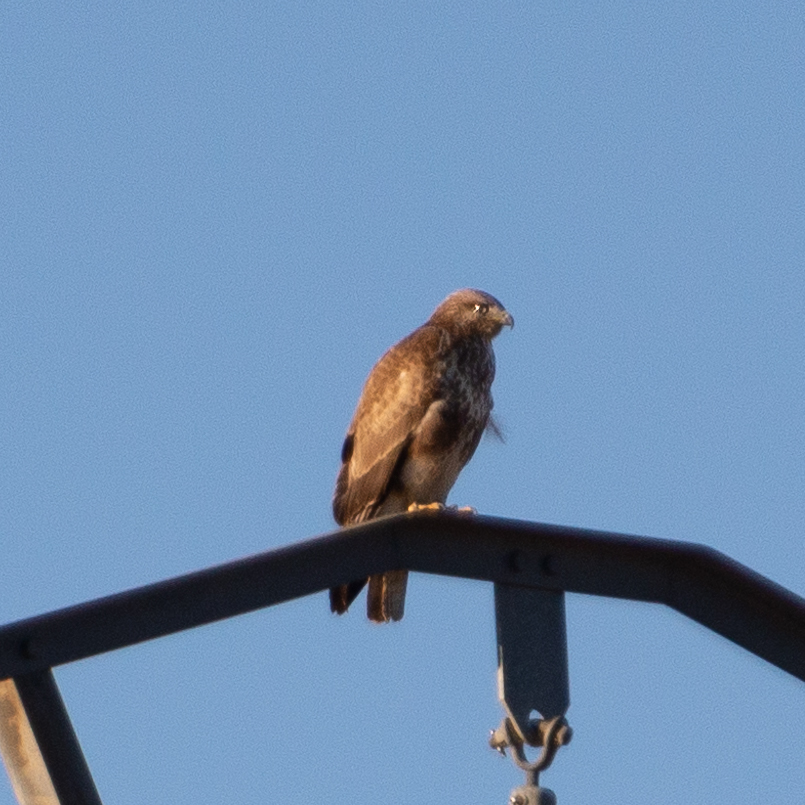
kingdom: Animalia
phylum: Chordata
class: Aves
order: Accipitriformes
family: Accipitridae
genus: Buteo
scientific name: Buteo buteo
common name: Common buzzard
